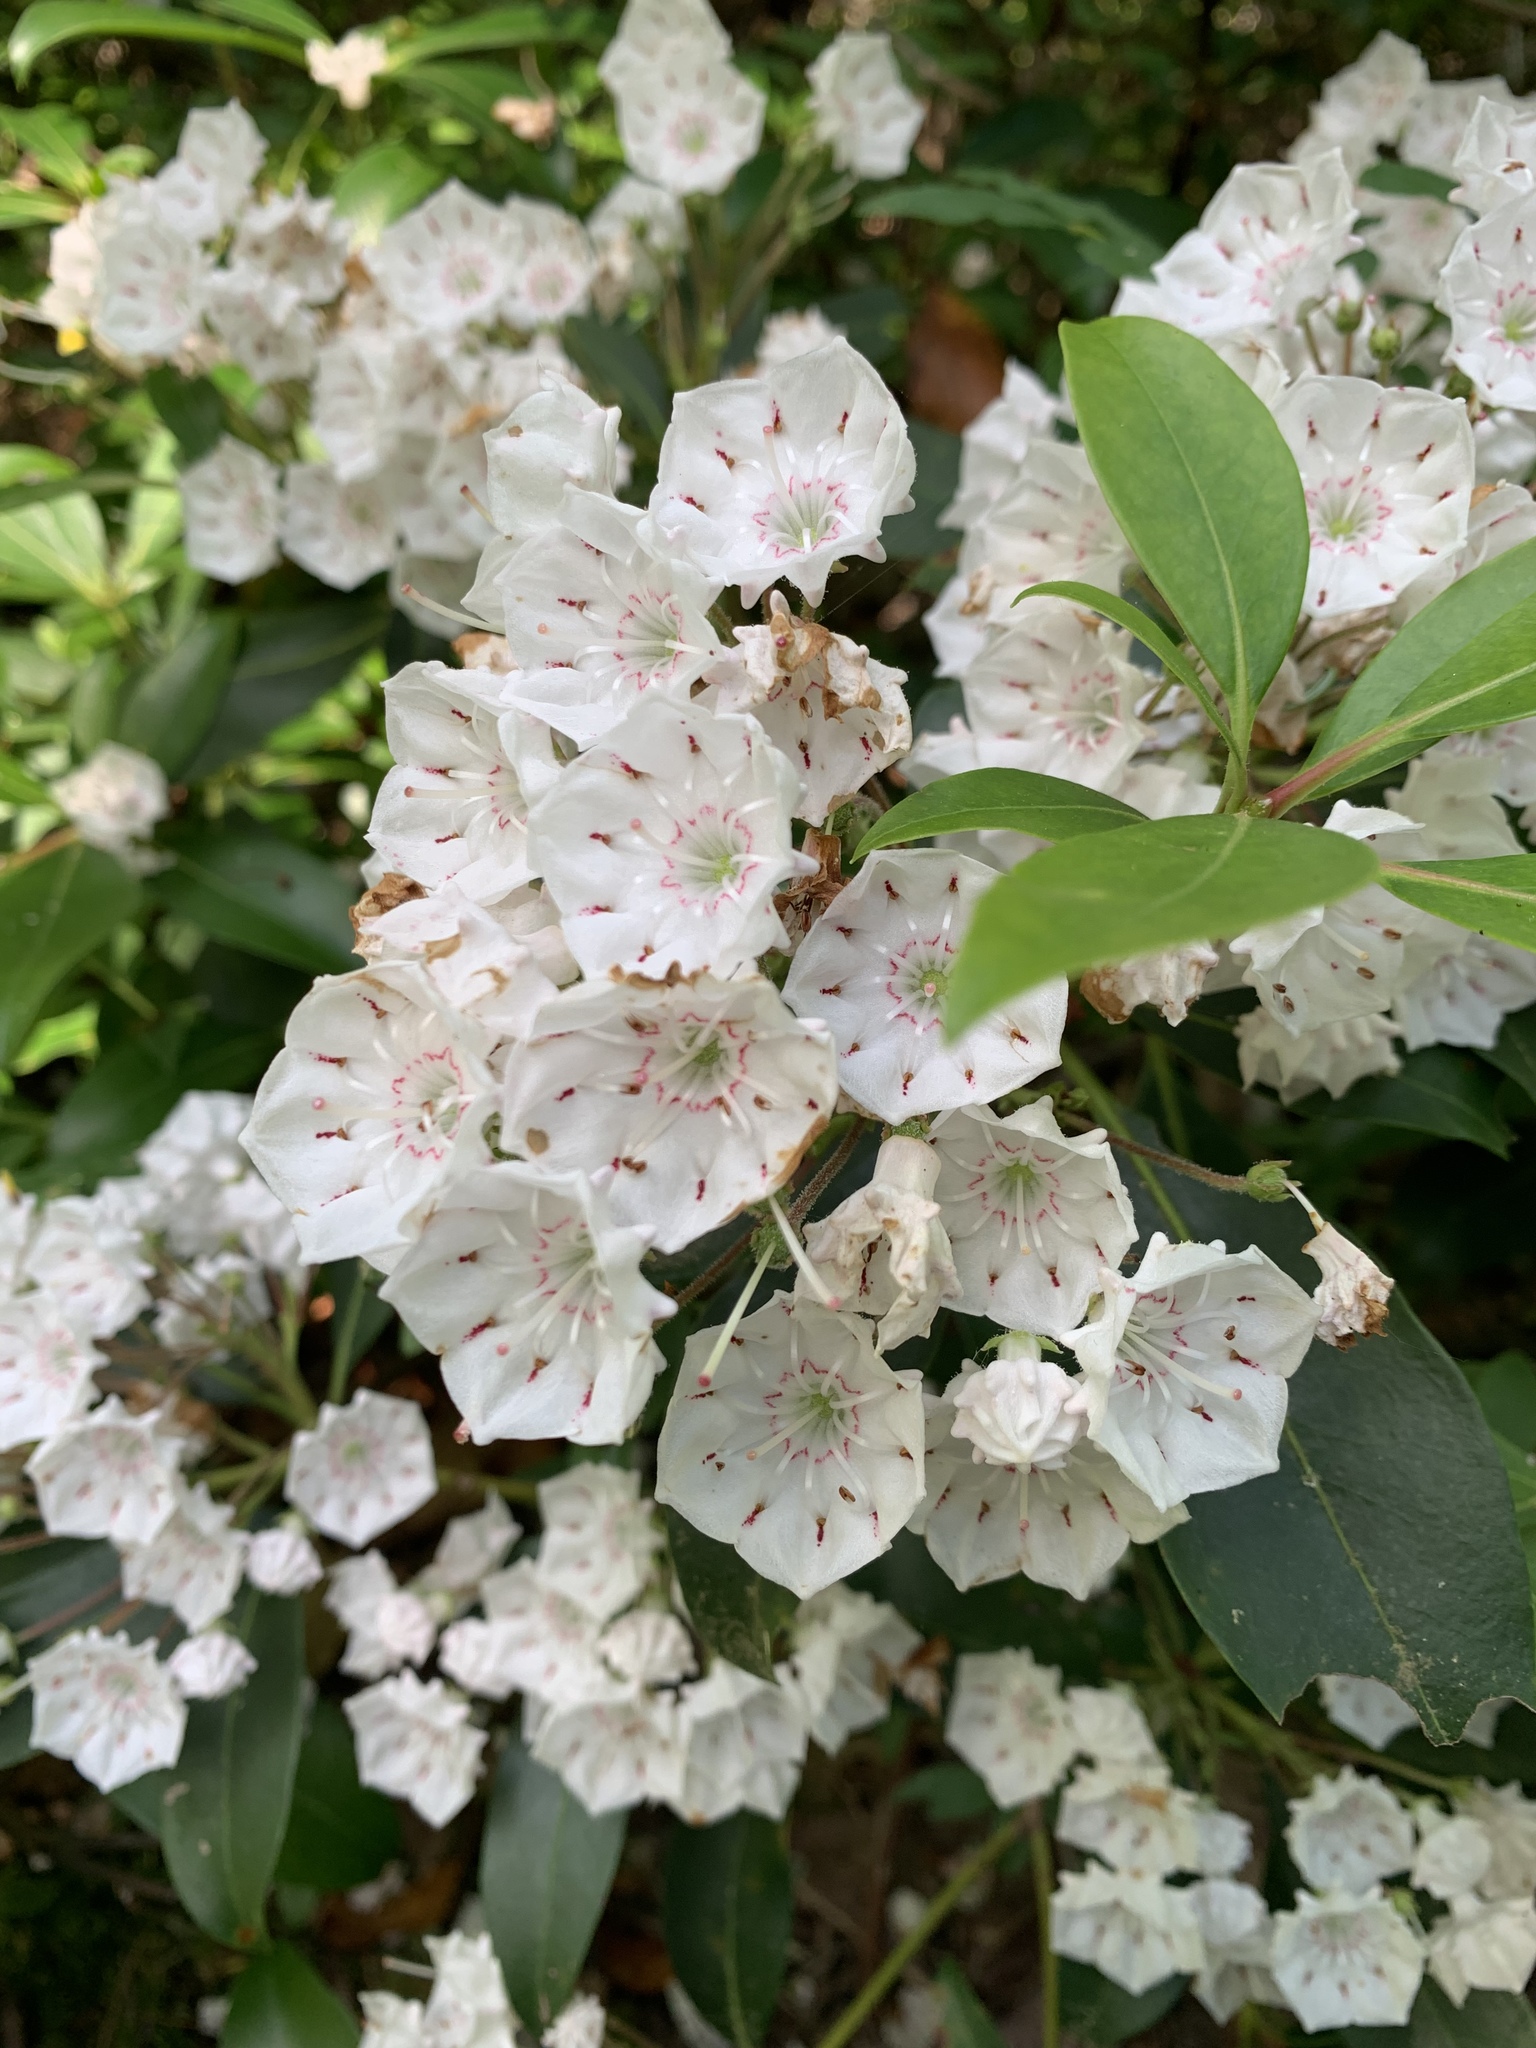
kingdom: Plantae
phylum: Tracheophyta
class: Magnoliopsida
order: Ericales
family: Ericaceae
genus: Kalmia
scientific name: Kalmia latifolia
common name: Mountain-laurel
